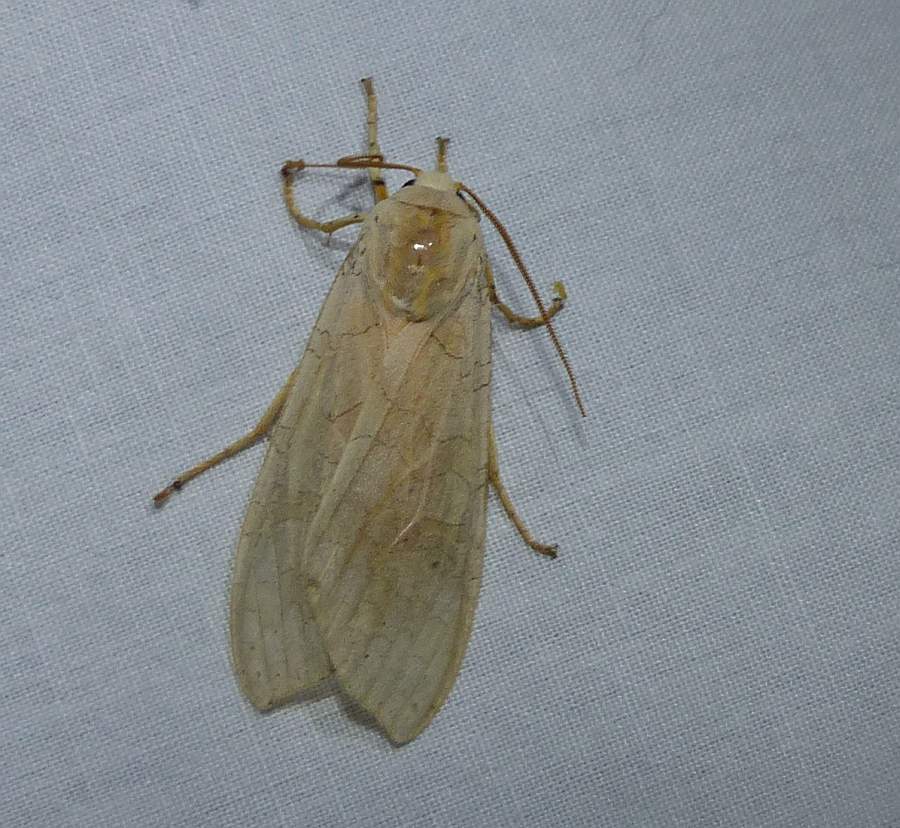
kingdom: Animalia
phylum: Arthropoda
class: Insecta
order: Lepidoptera
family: Erebidae
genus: Halysidota
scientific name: Halysidota tessellaris
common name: Banded tussock moth
